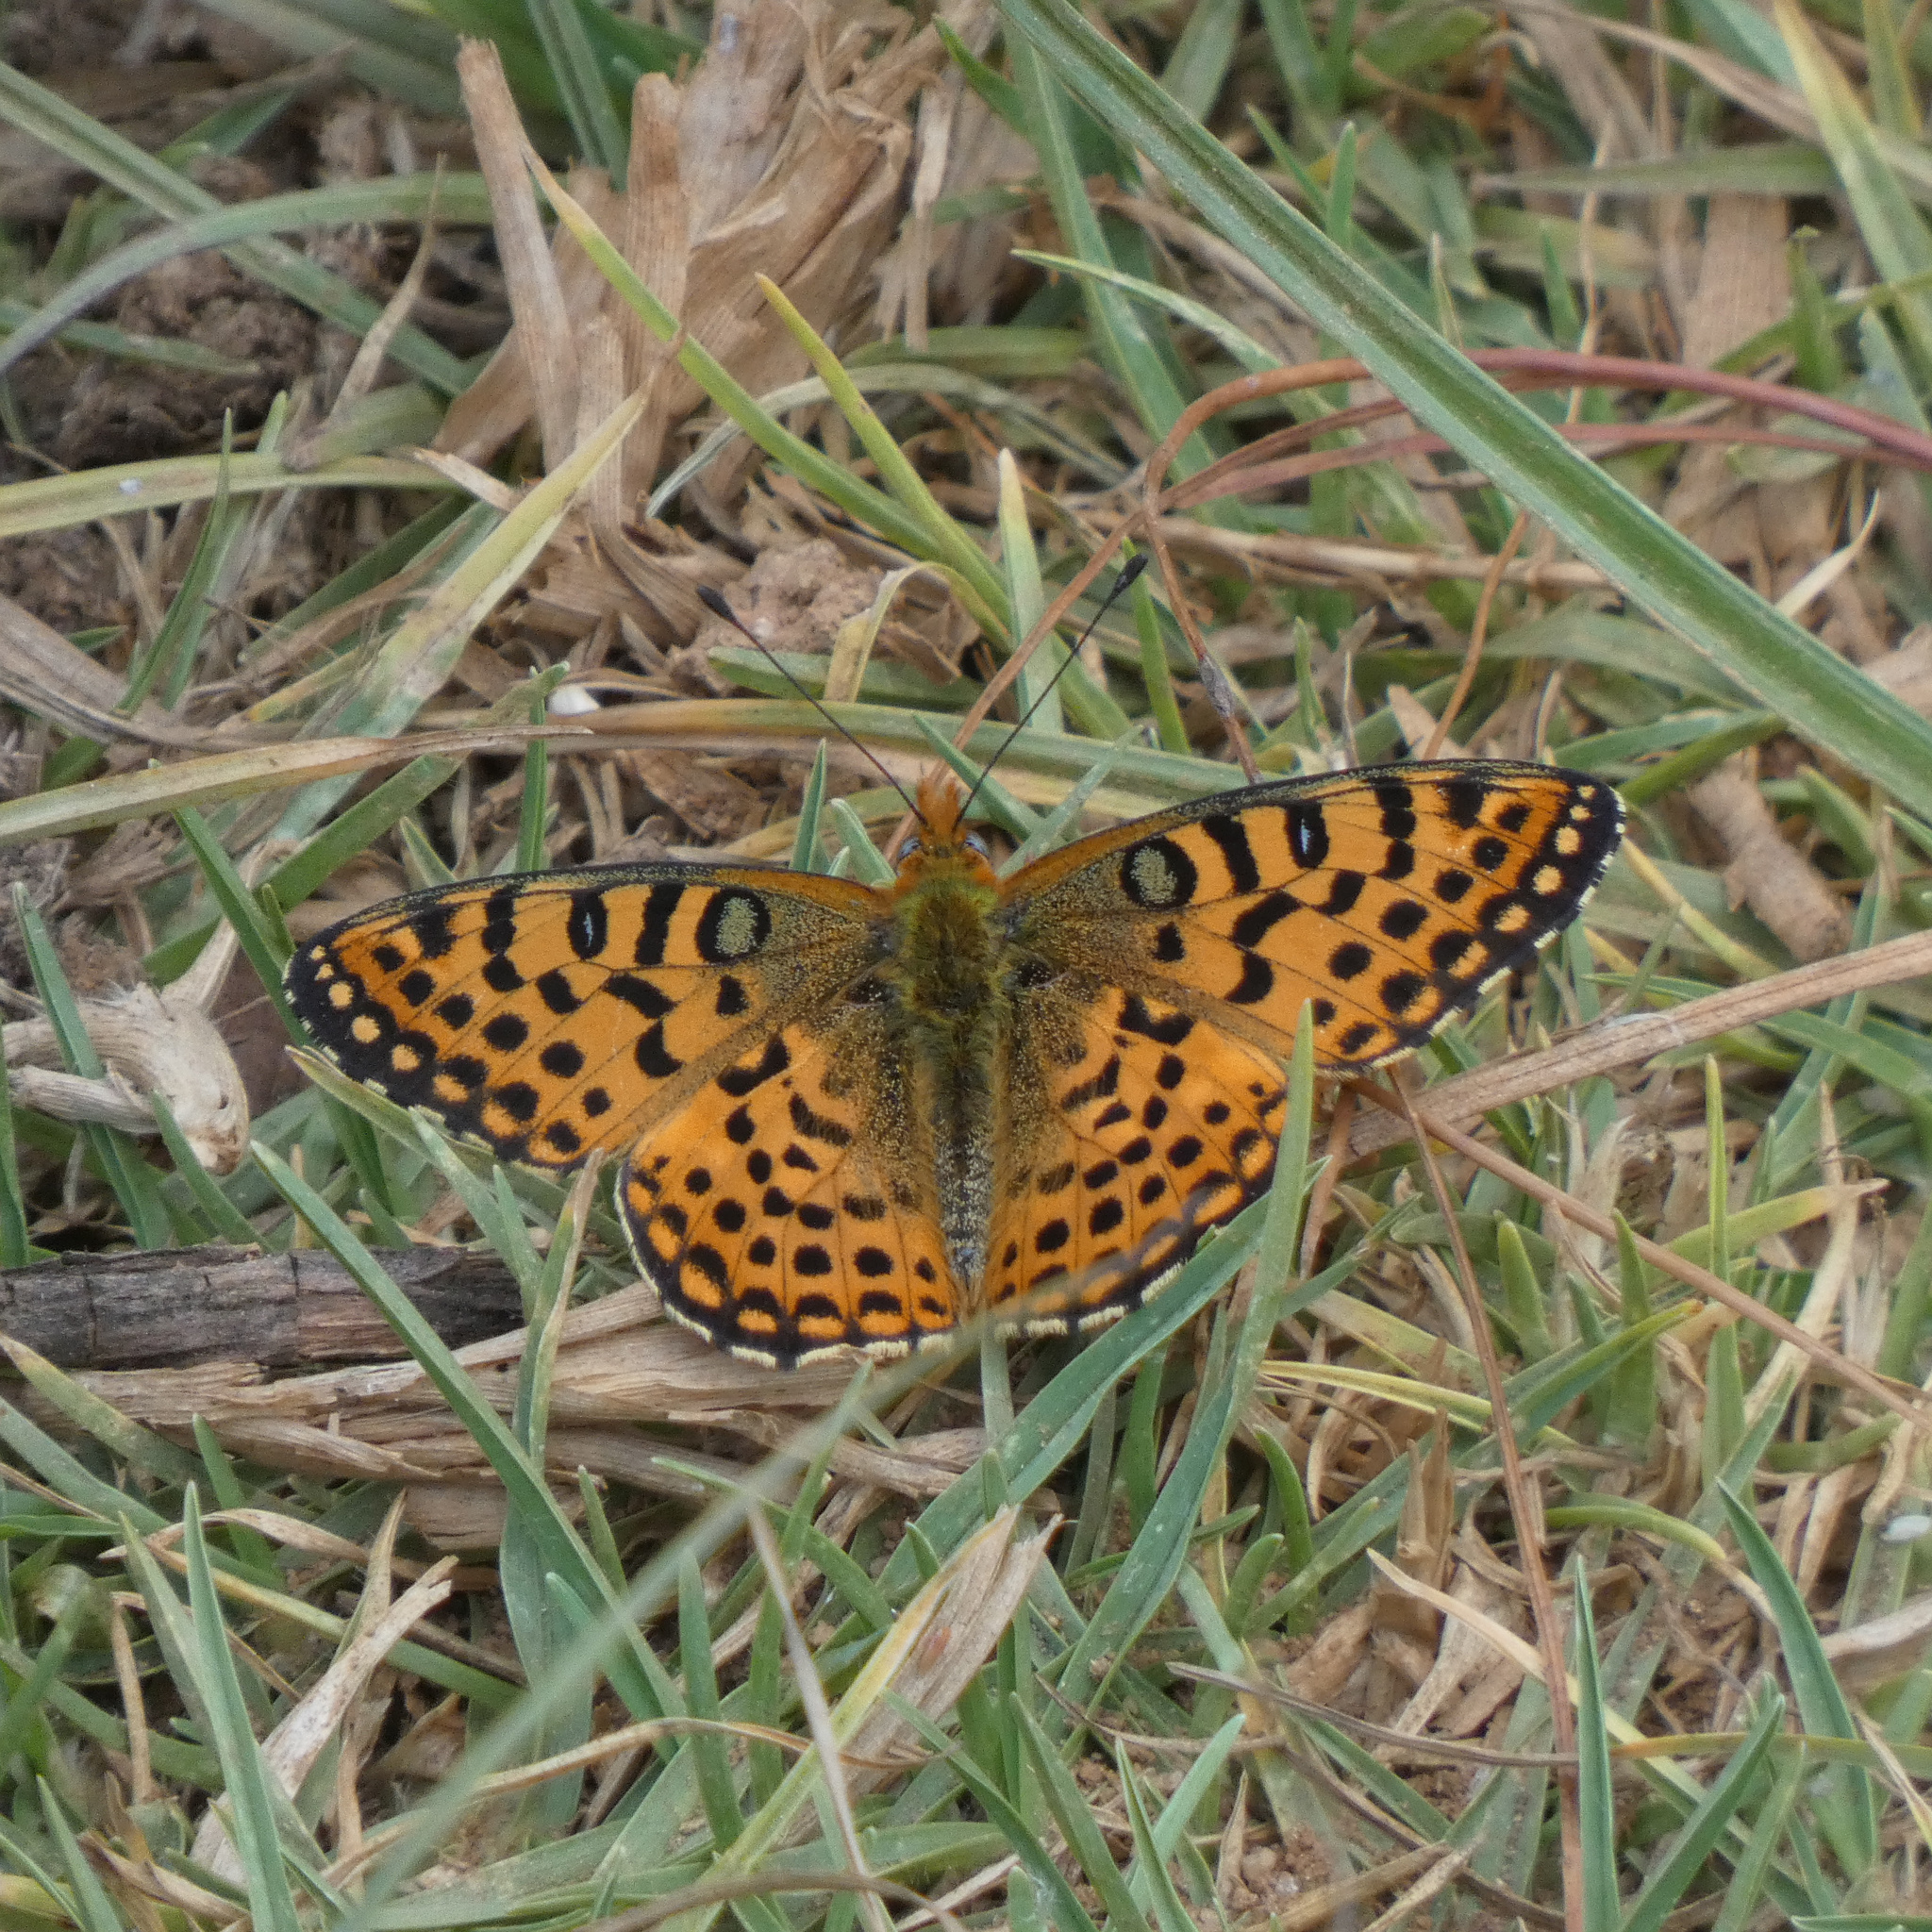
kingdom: Animalia
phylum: Arthropoda
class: Insecta
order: Lepidoptera
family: Nymphalidae
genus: Issoria
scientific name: Issoria smaragdifera
